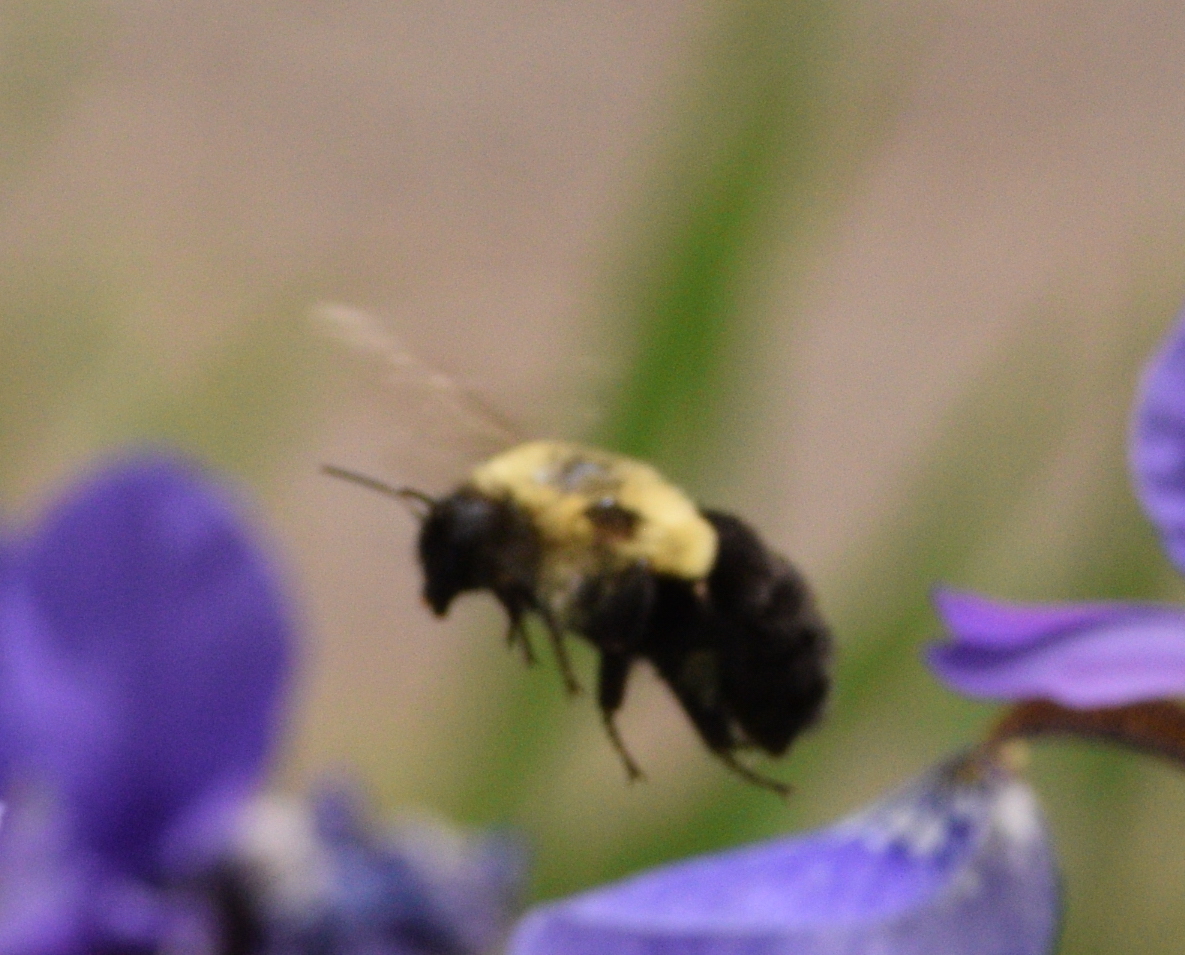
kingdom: Animalia
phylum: Arthropoda
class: Insecta
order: Hymenoptera
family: Apidae
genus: Bombus
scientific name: Bombus impatiens
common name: Common eastern bumble bee
